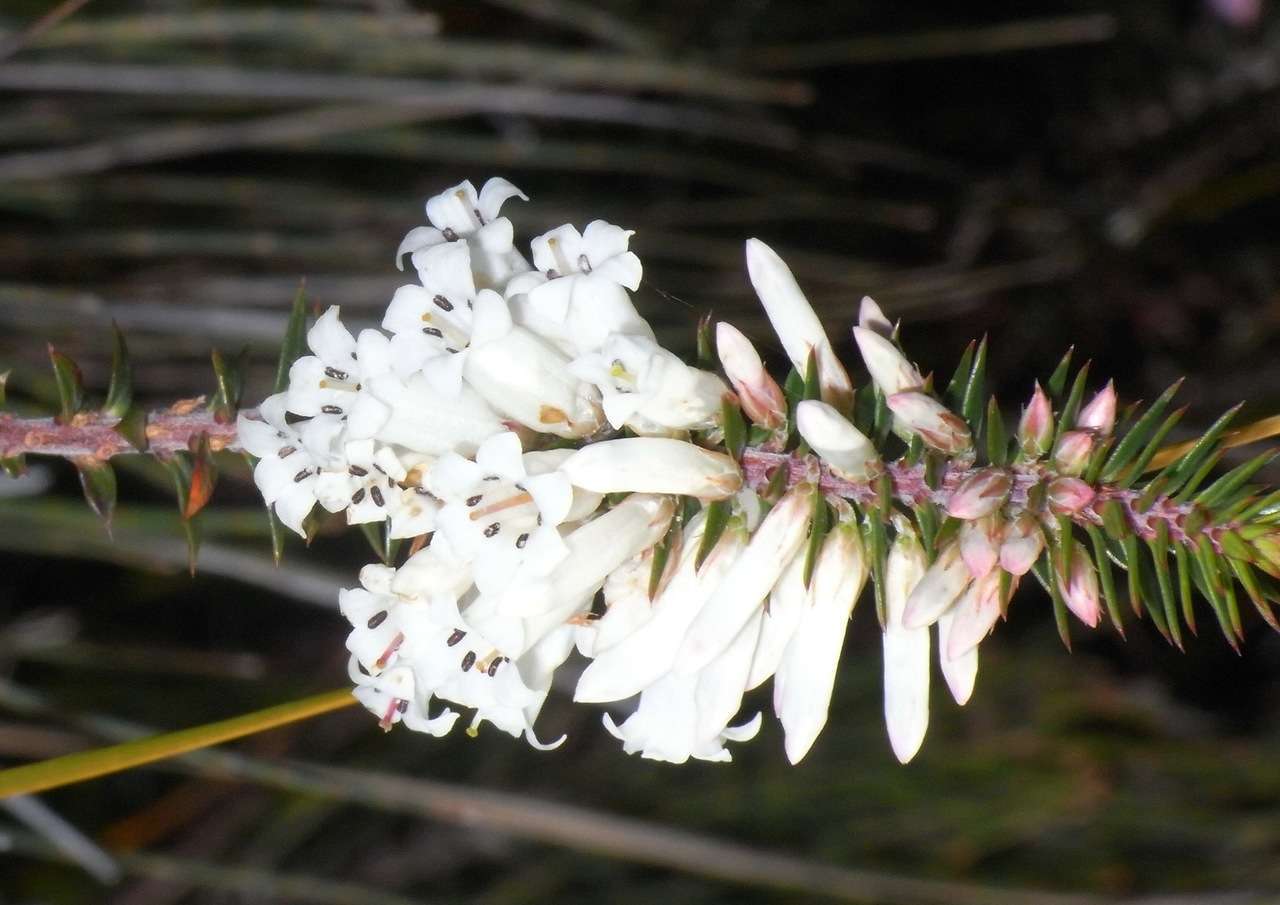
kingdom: Plantae
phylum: Tracheophyta
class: Magnoliopsida
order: Ericales
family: Ericaceae
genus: Epacris
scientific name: Epacris impressa
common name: Common-heath
